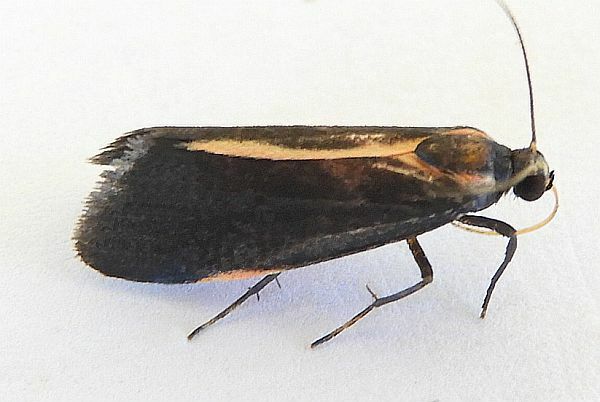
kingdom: Animalia
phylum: Arthropoda
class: Insecta
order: Lepidoptera
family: Erebidae
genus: Cisthene
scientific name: Cisthene juanita
